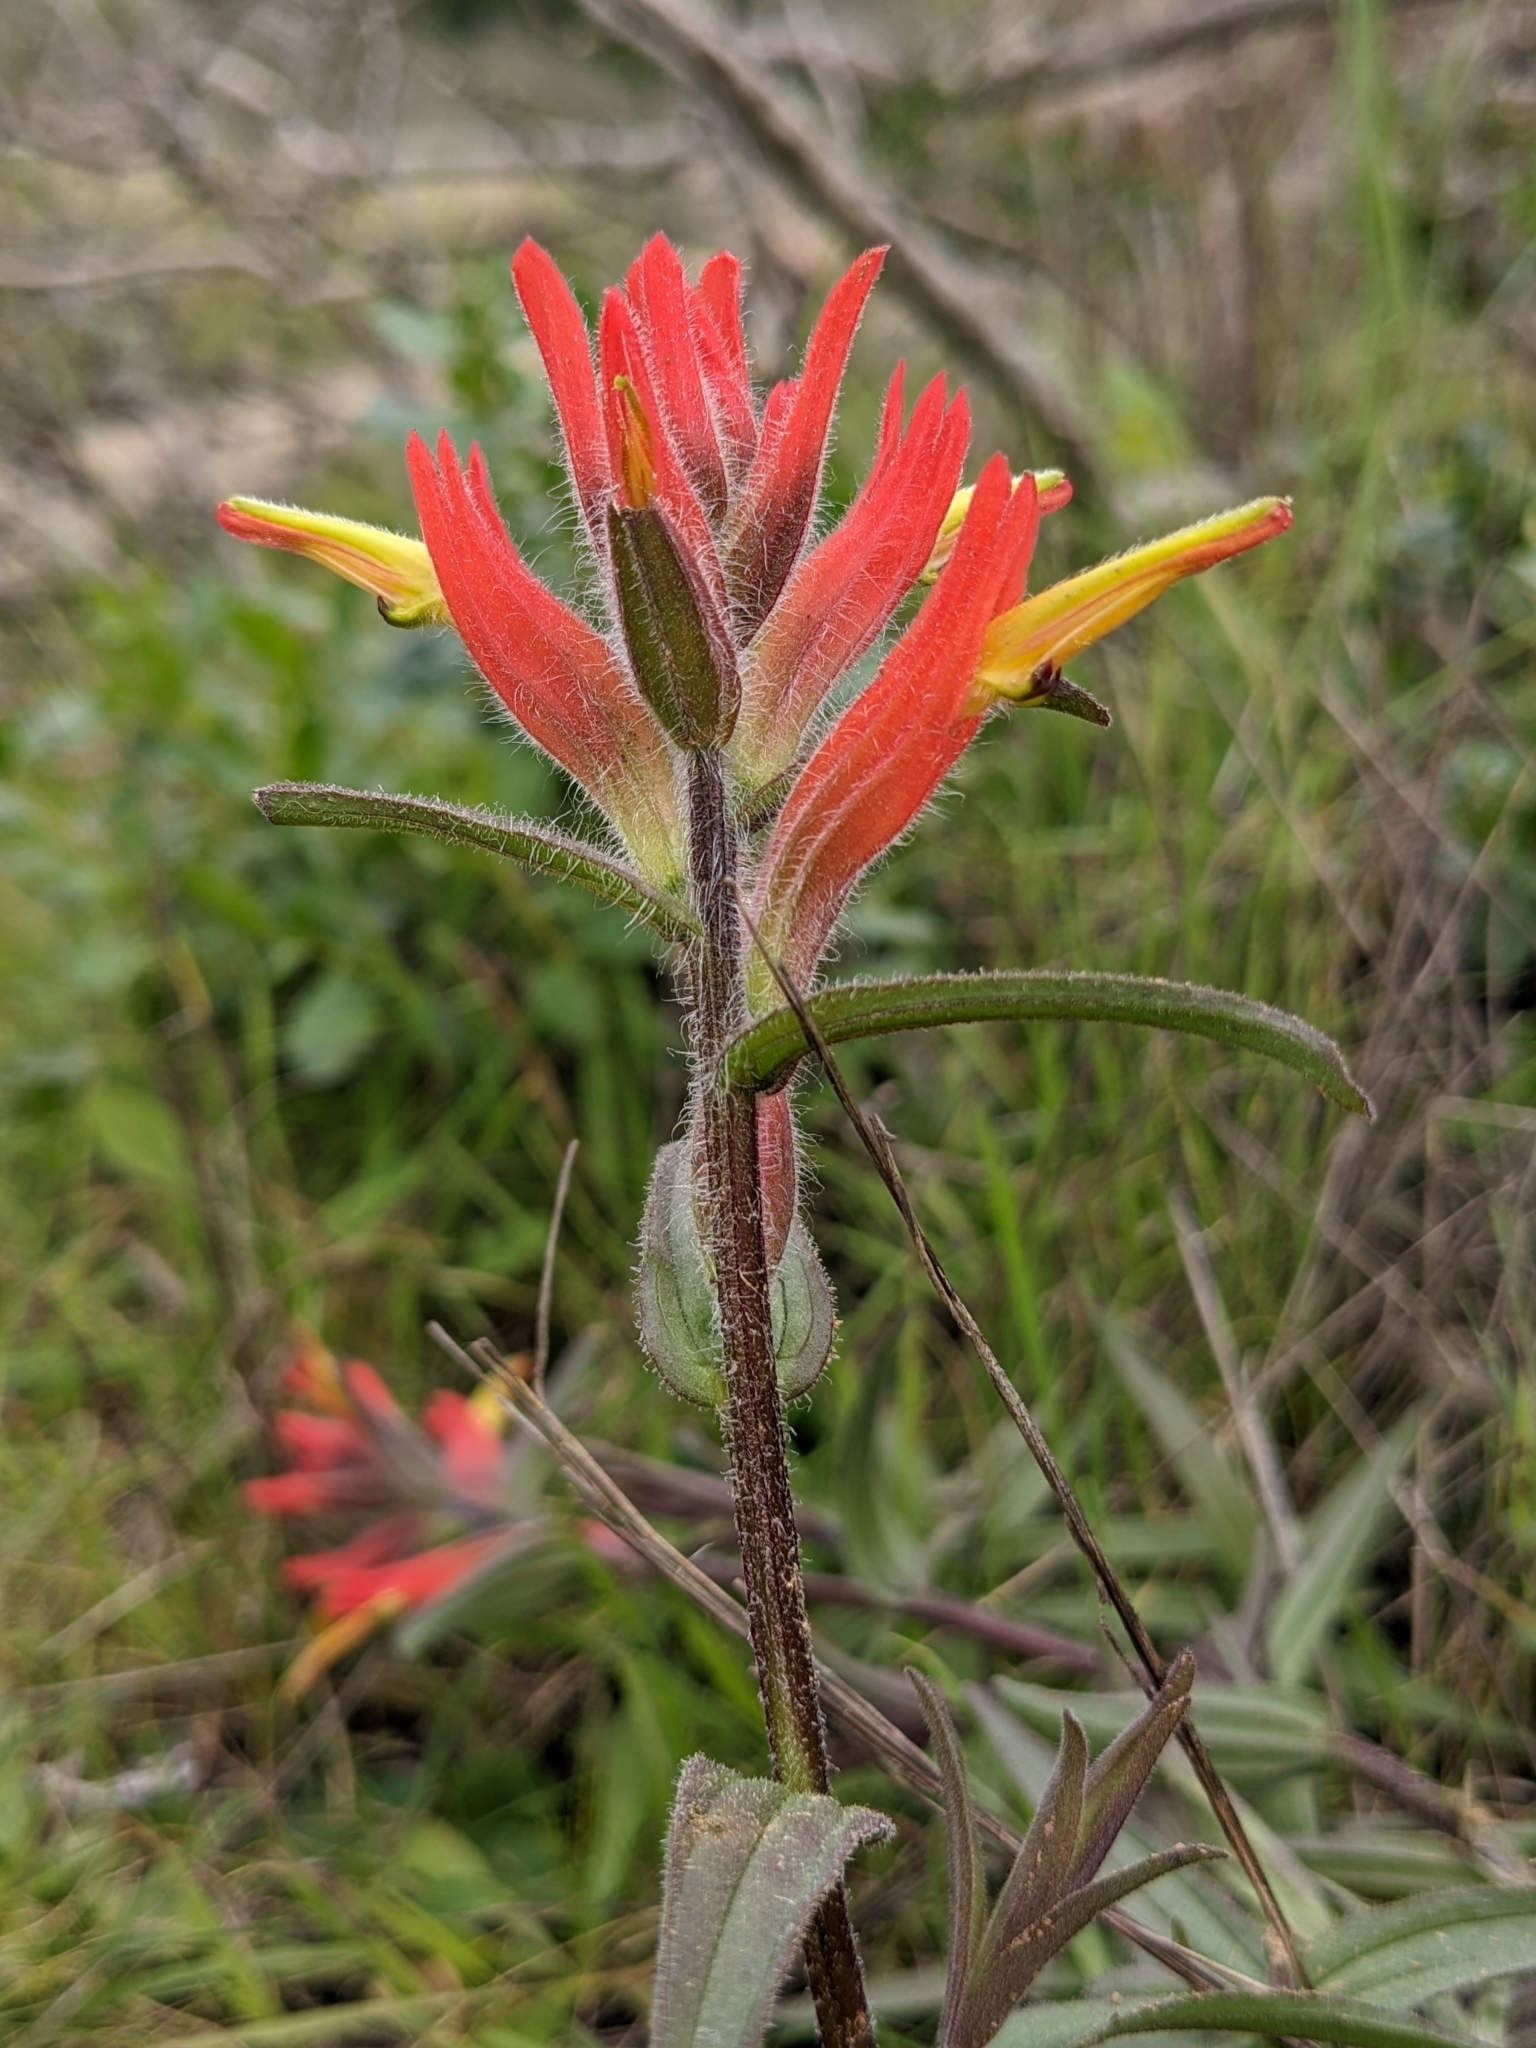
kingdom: Plantae
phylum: Tracheophyta
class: Magnoliopsida
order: Lamiales
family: Orobanchaceae
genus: Castilleja
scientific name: Castilleja subinclusa
